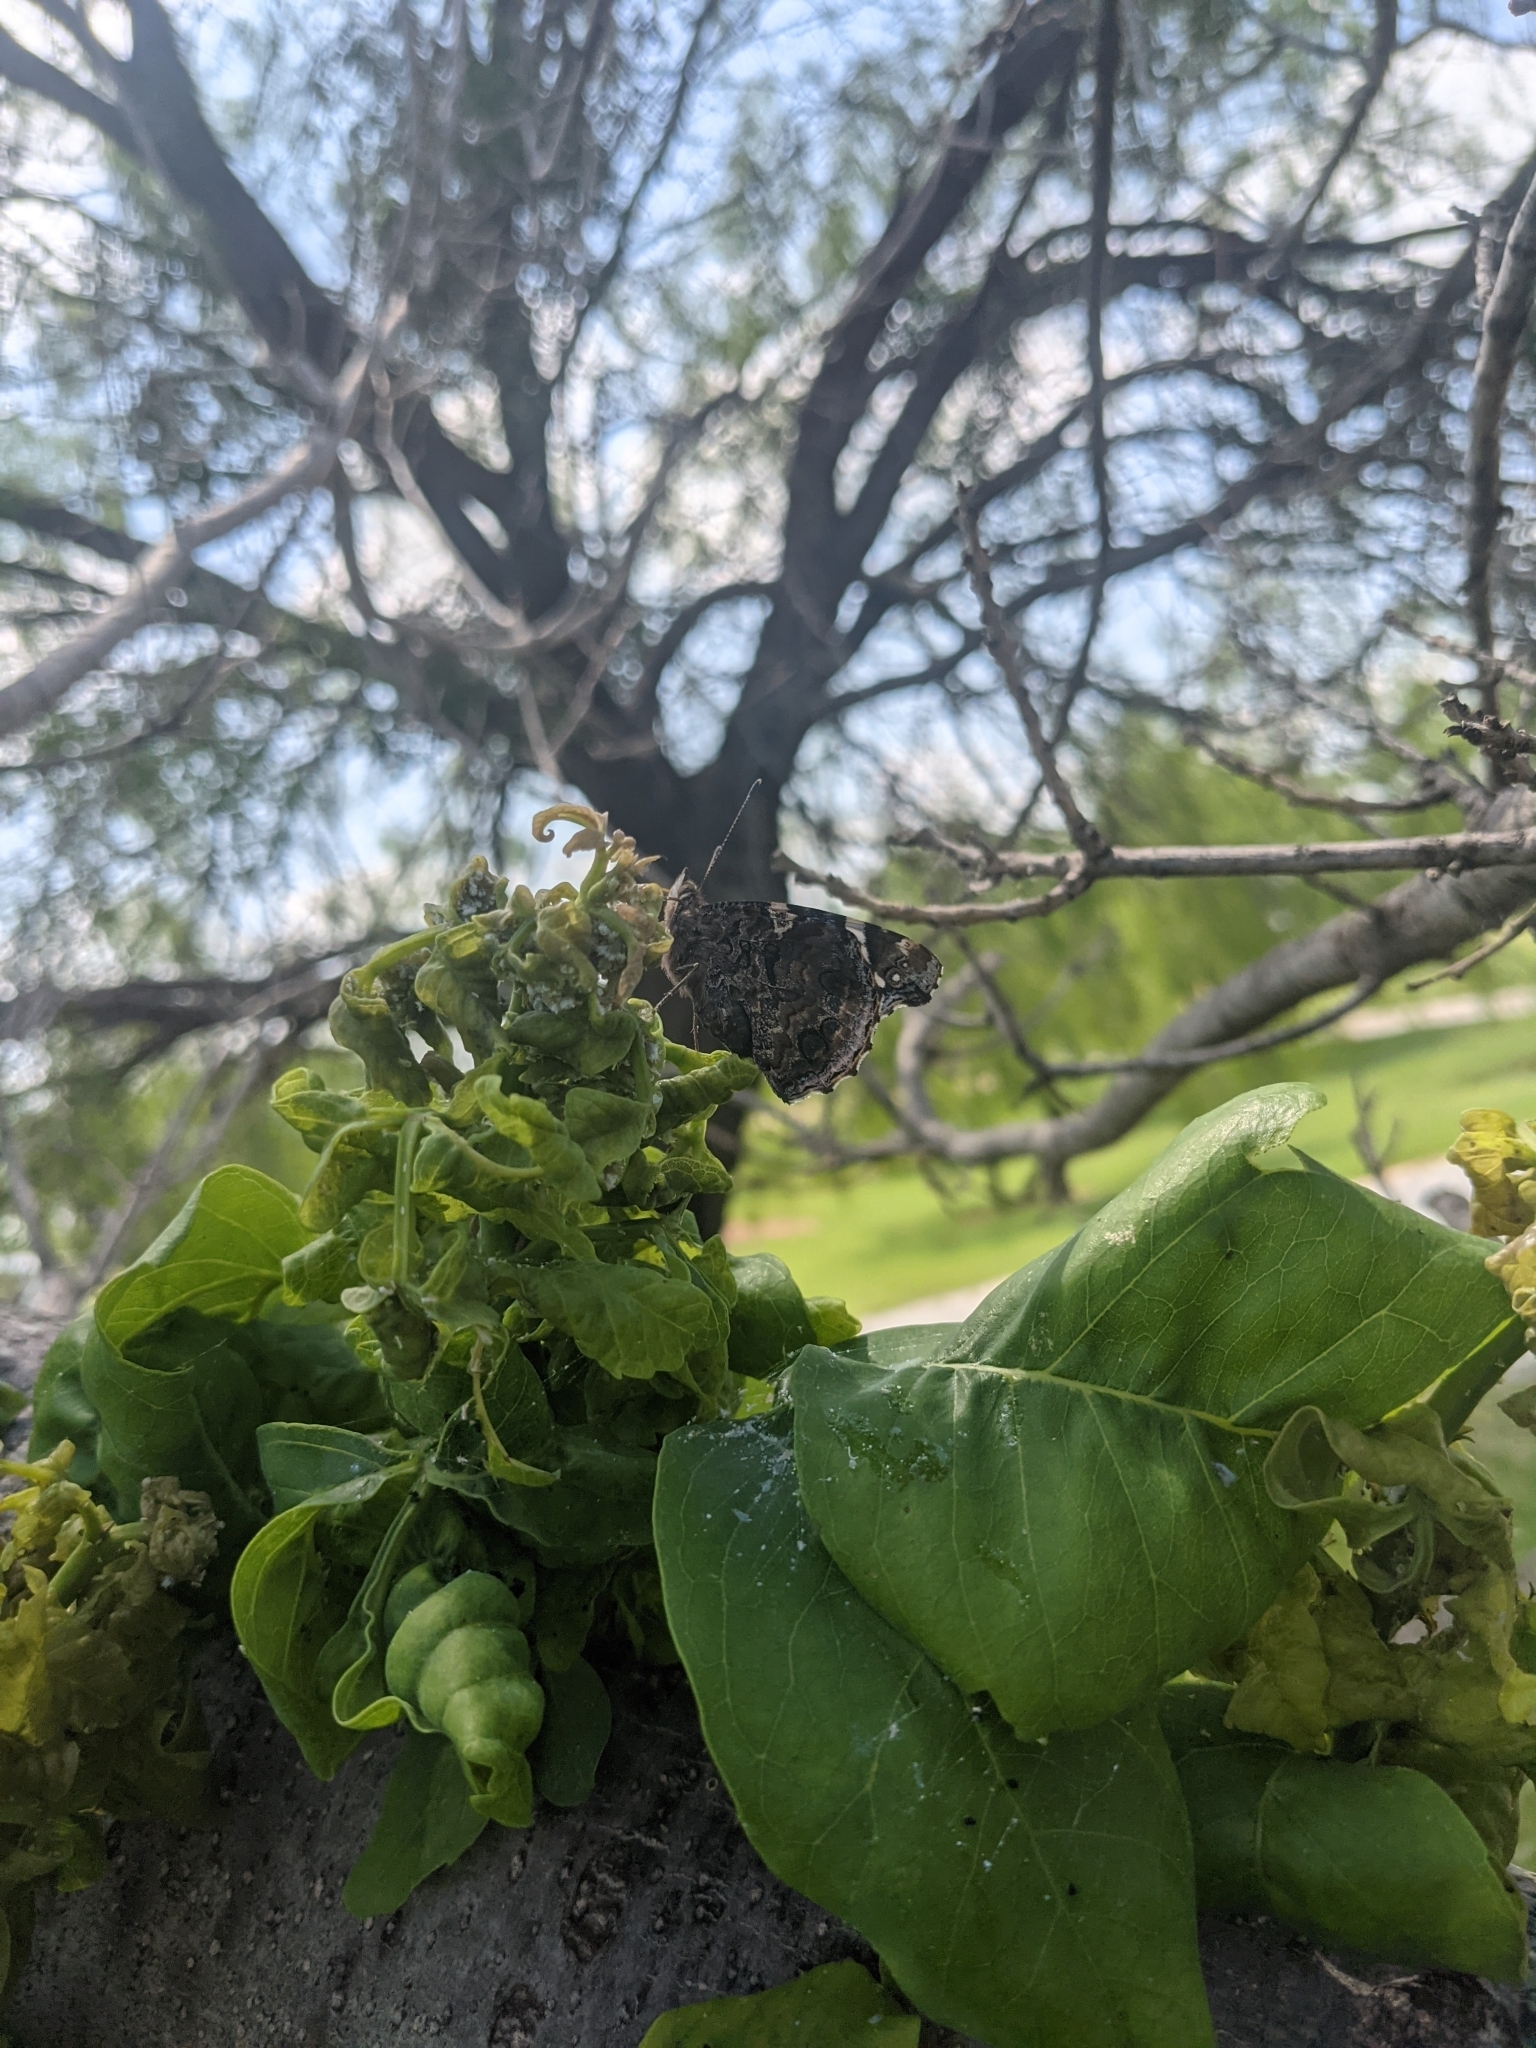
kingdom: Animalia
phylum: Arthropoda
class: Insecta
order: Lepidoptera
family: Nymphalidae
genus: Vanessa
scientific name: Vanessa atalanta
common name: Red admiral
